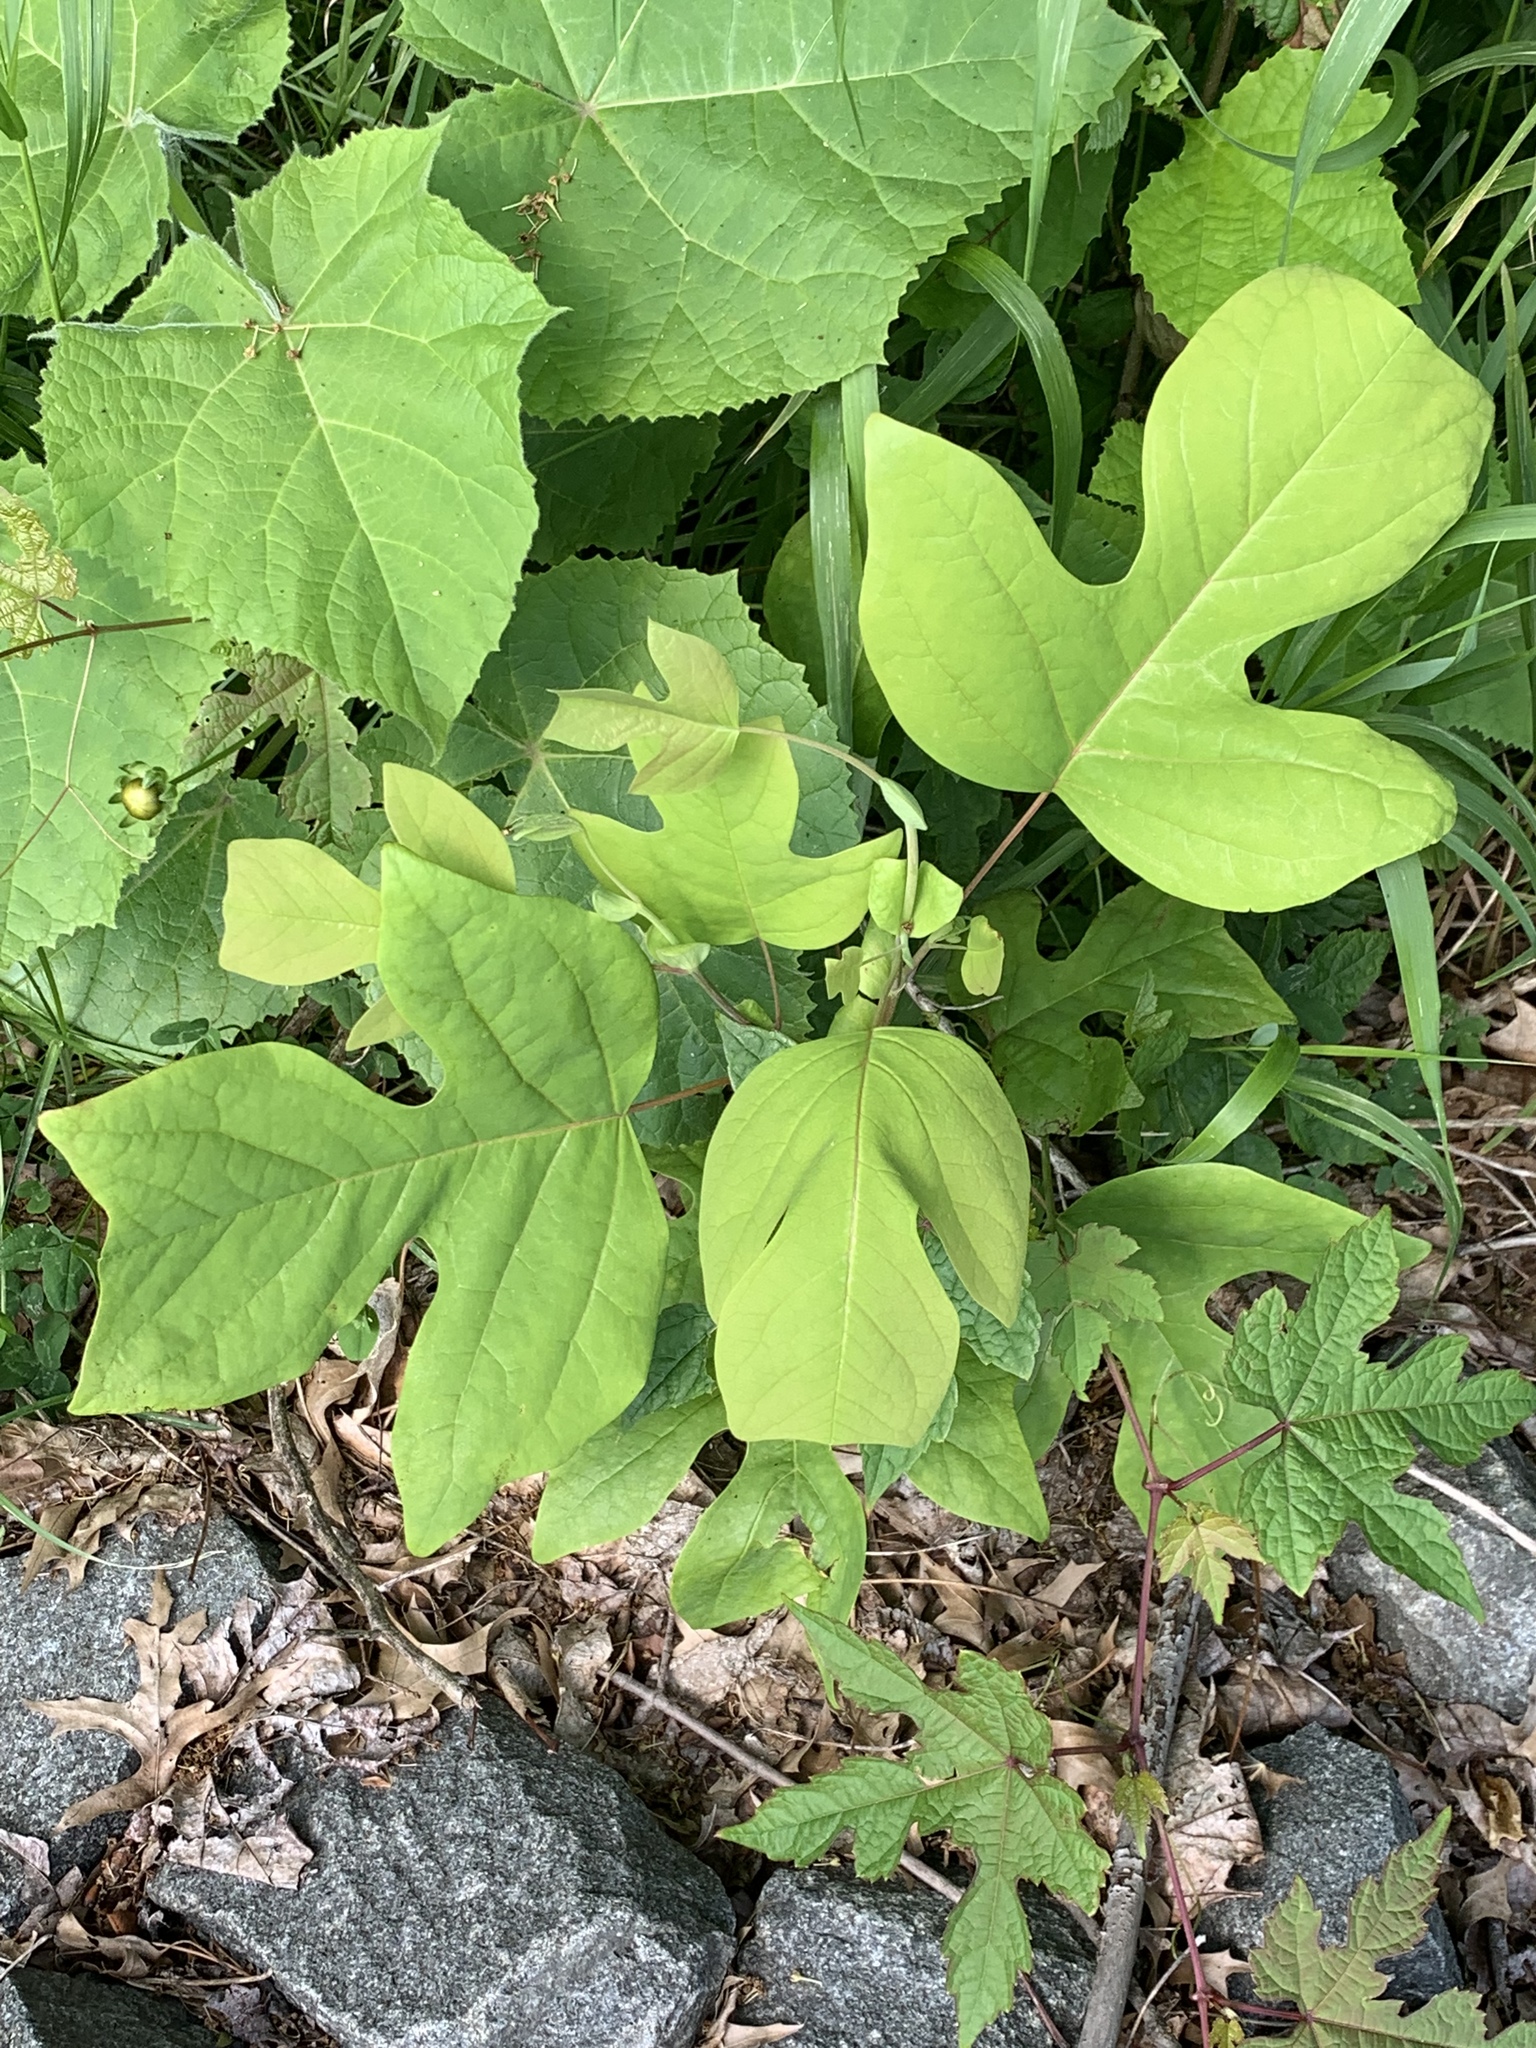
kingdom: Plantae
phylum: Tracheophyta
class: Magnoliopsida
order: Magnoliales
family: Magnoliaceae
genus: Liriodendron
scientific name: Liriodendron tulipifera
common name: Tulip tree
